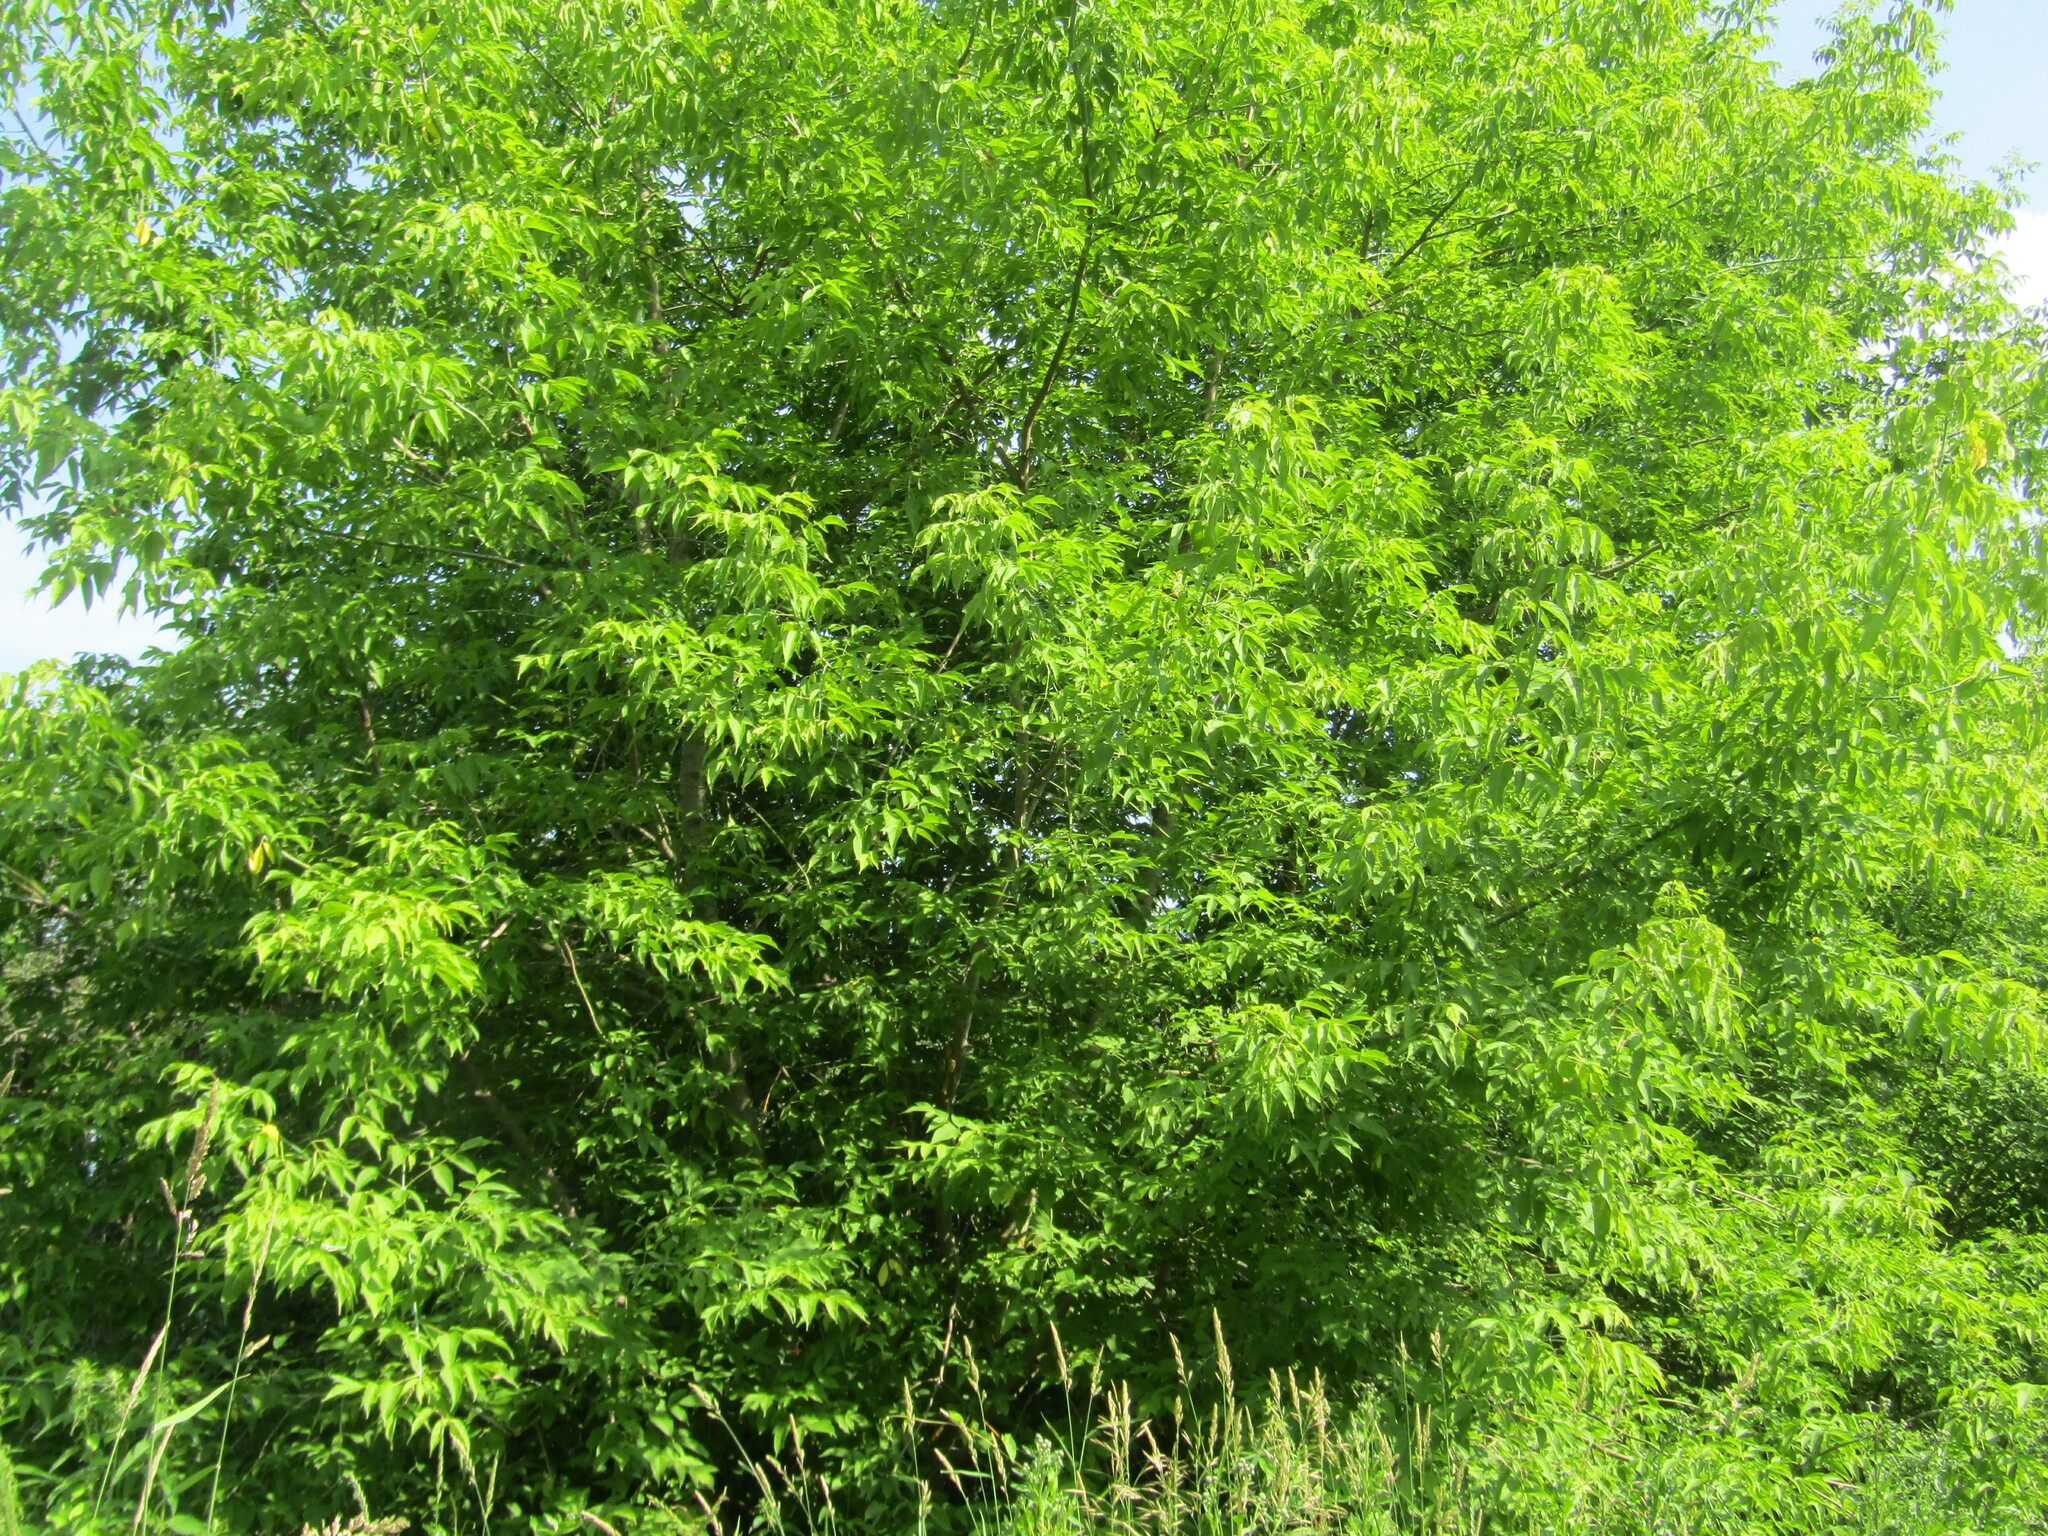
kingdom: Plantae
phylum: Tracheophyta
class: Magnoliopsida
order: Sapindales
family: Sapindaceae
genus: Acer
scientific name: Acer negundo
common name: Ashleaf maple
